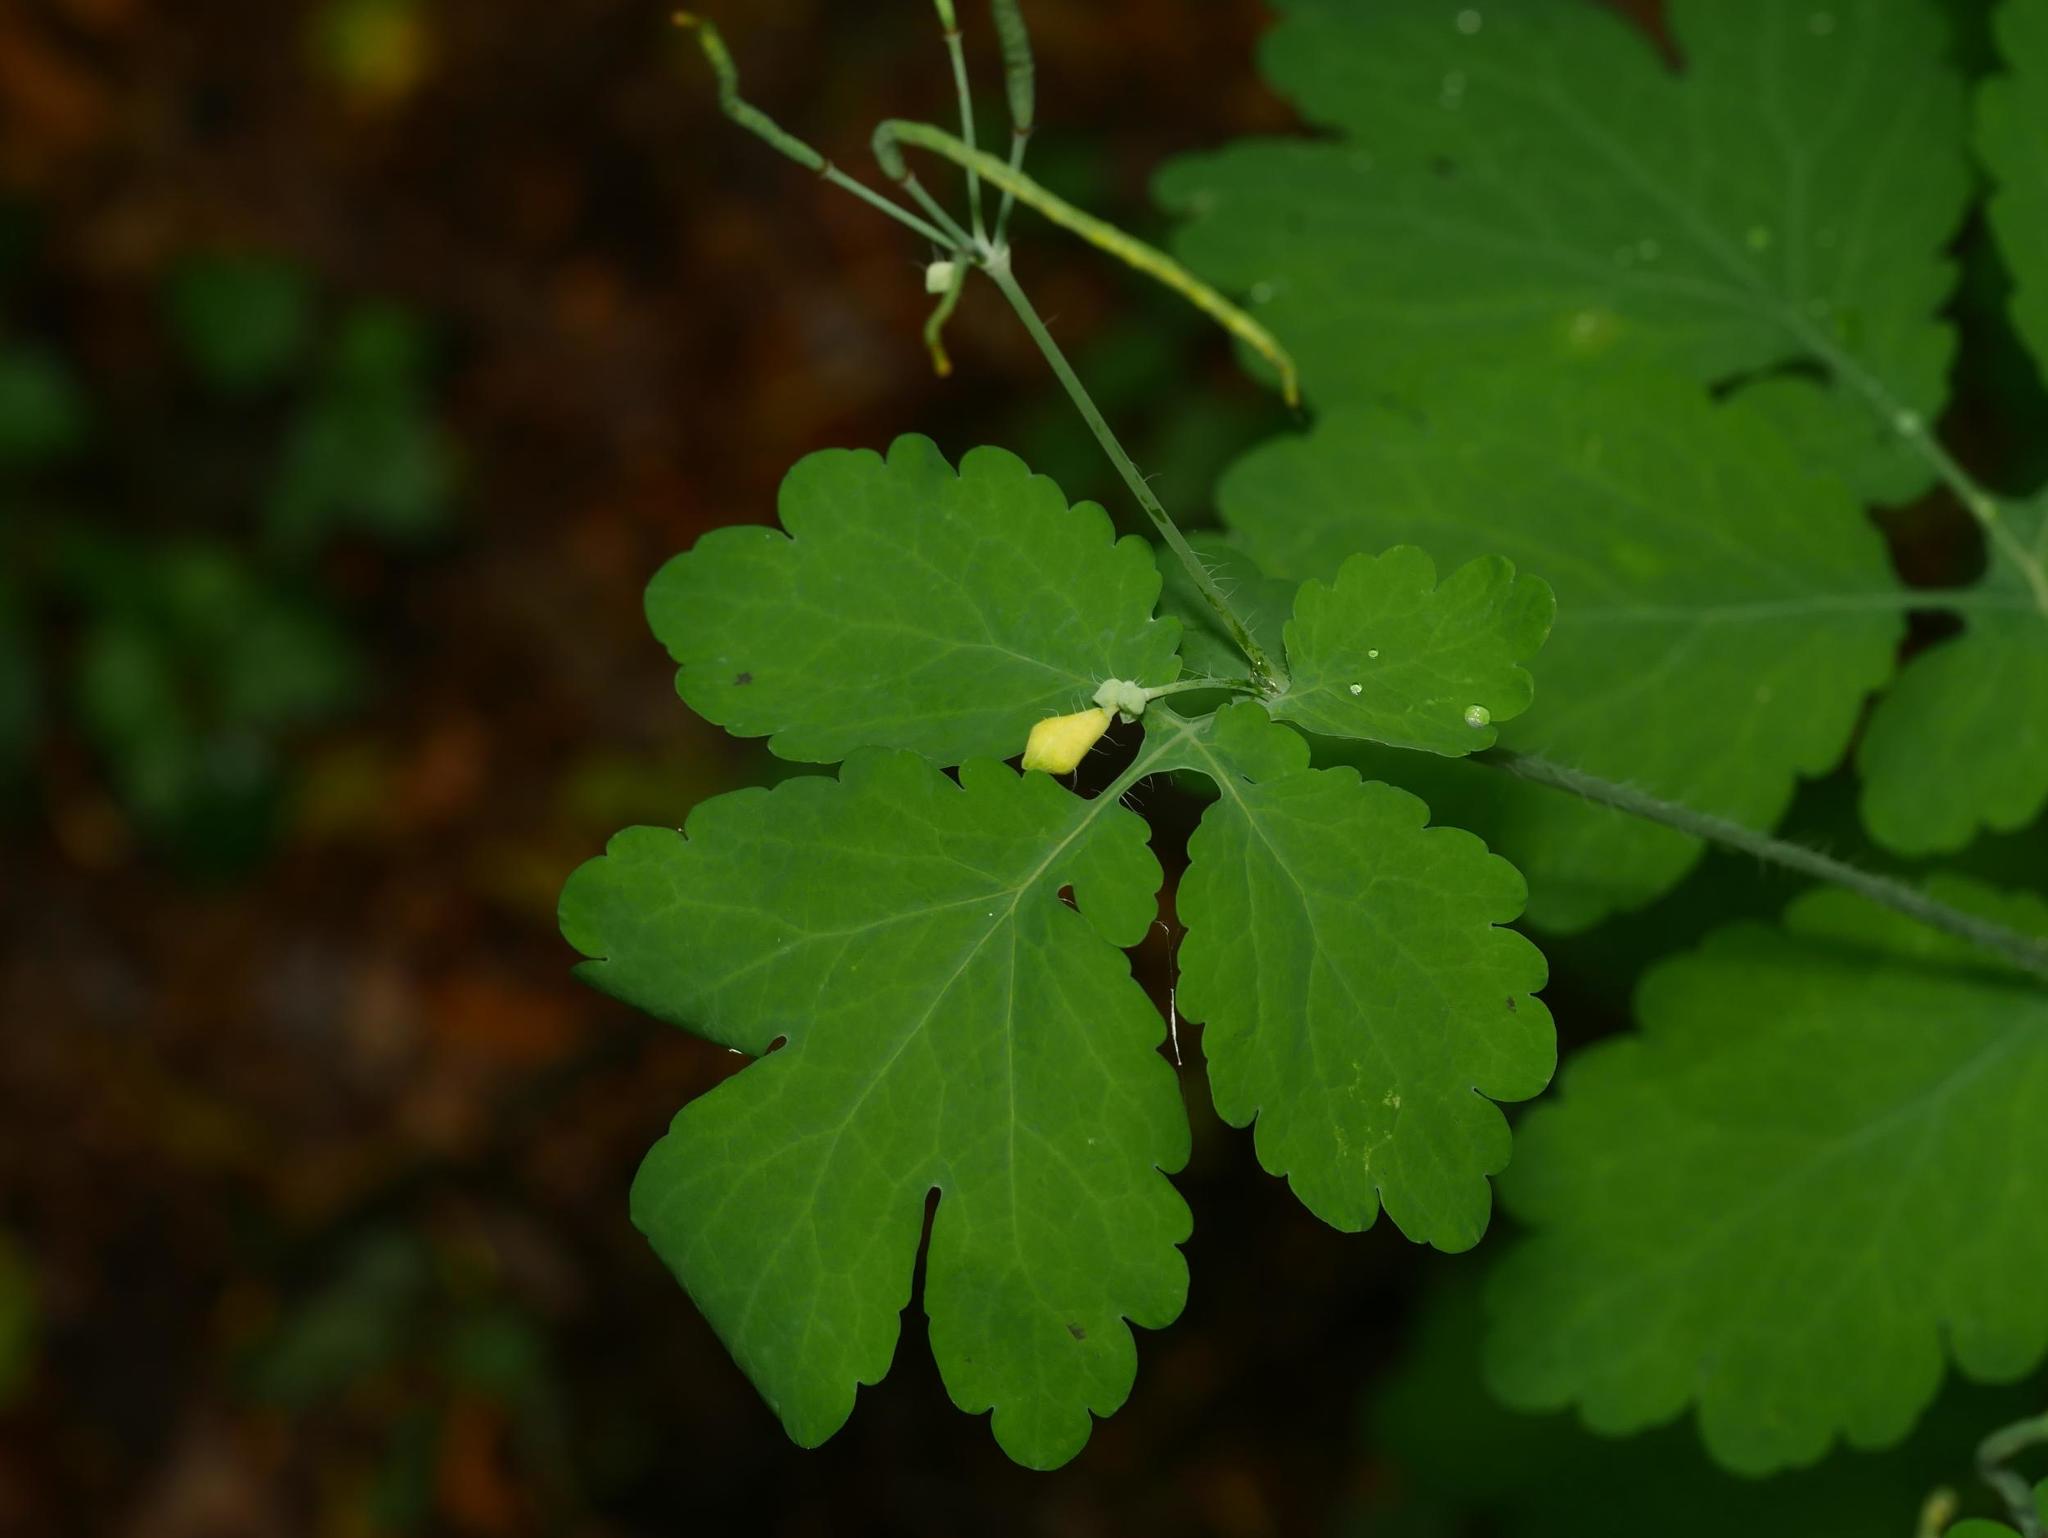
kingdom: Plantae
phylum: Tracheophyta
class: Magnoliopsida
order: Ranunculales
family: Papaveraceae
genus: Chelidonium
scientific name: Chelidonium majus
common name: Greater celandine
